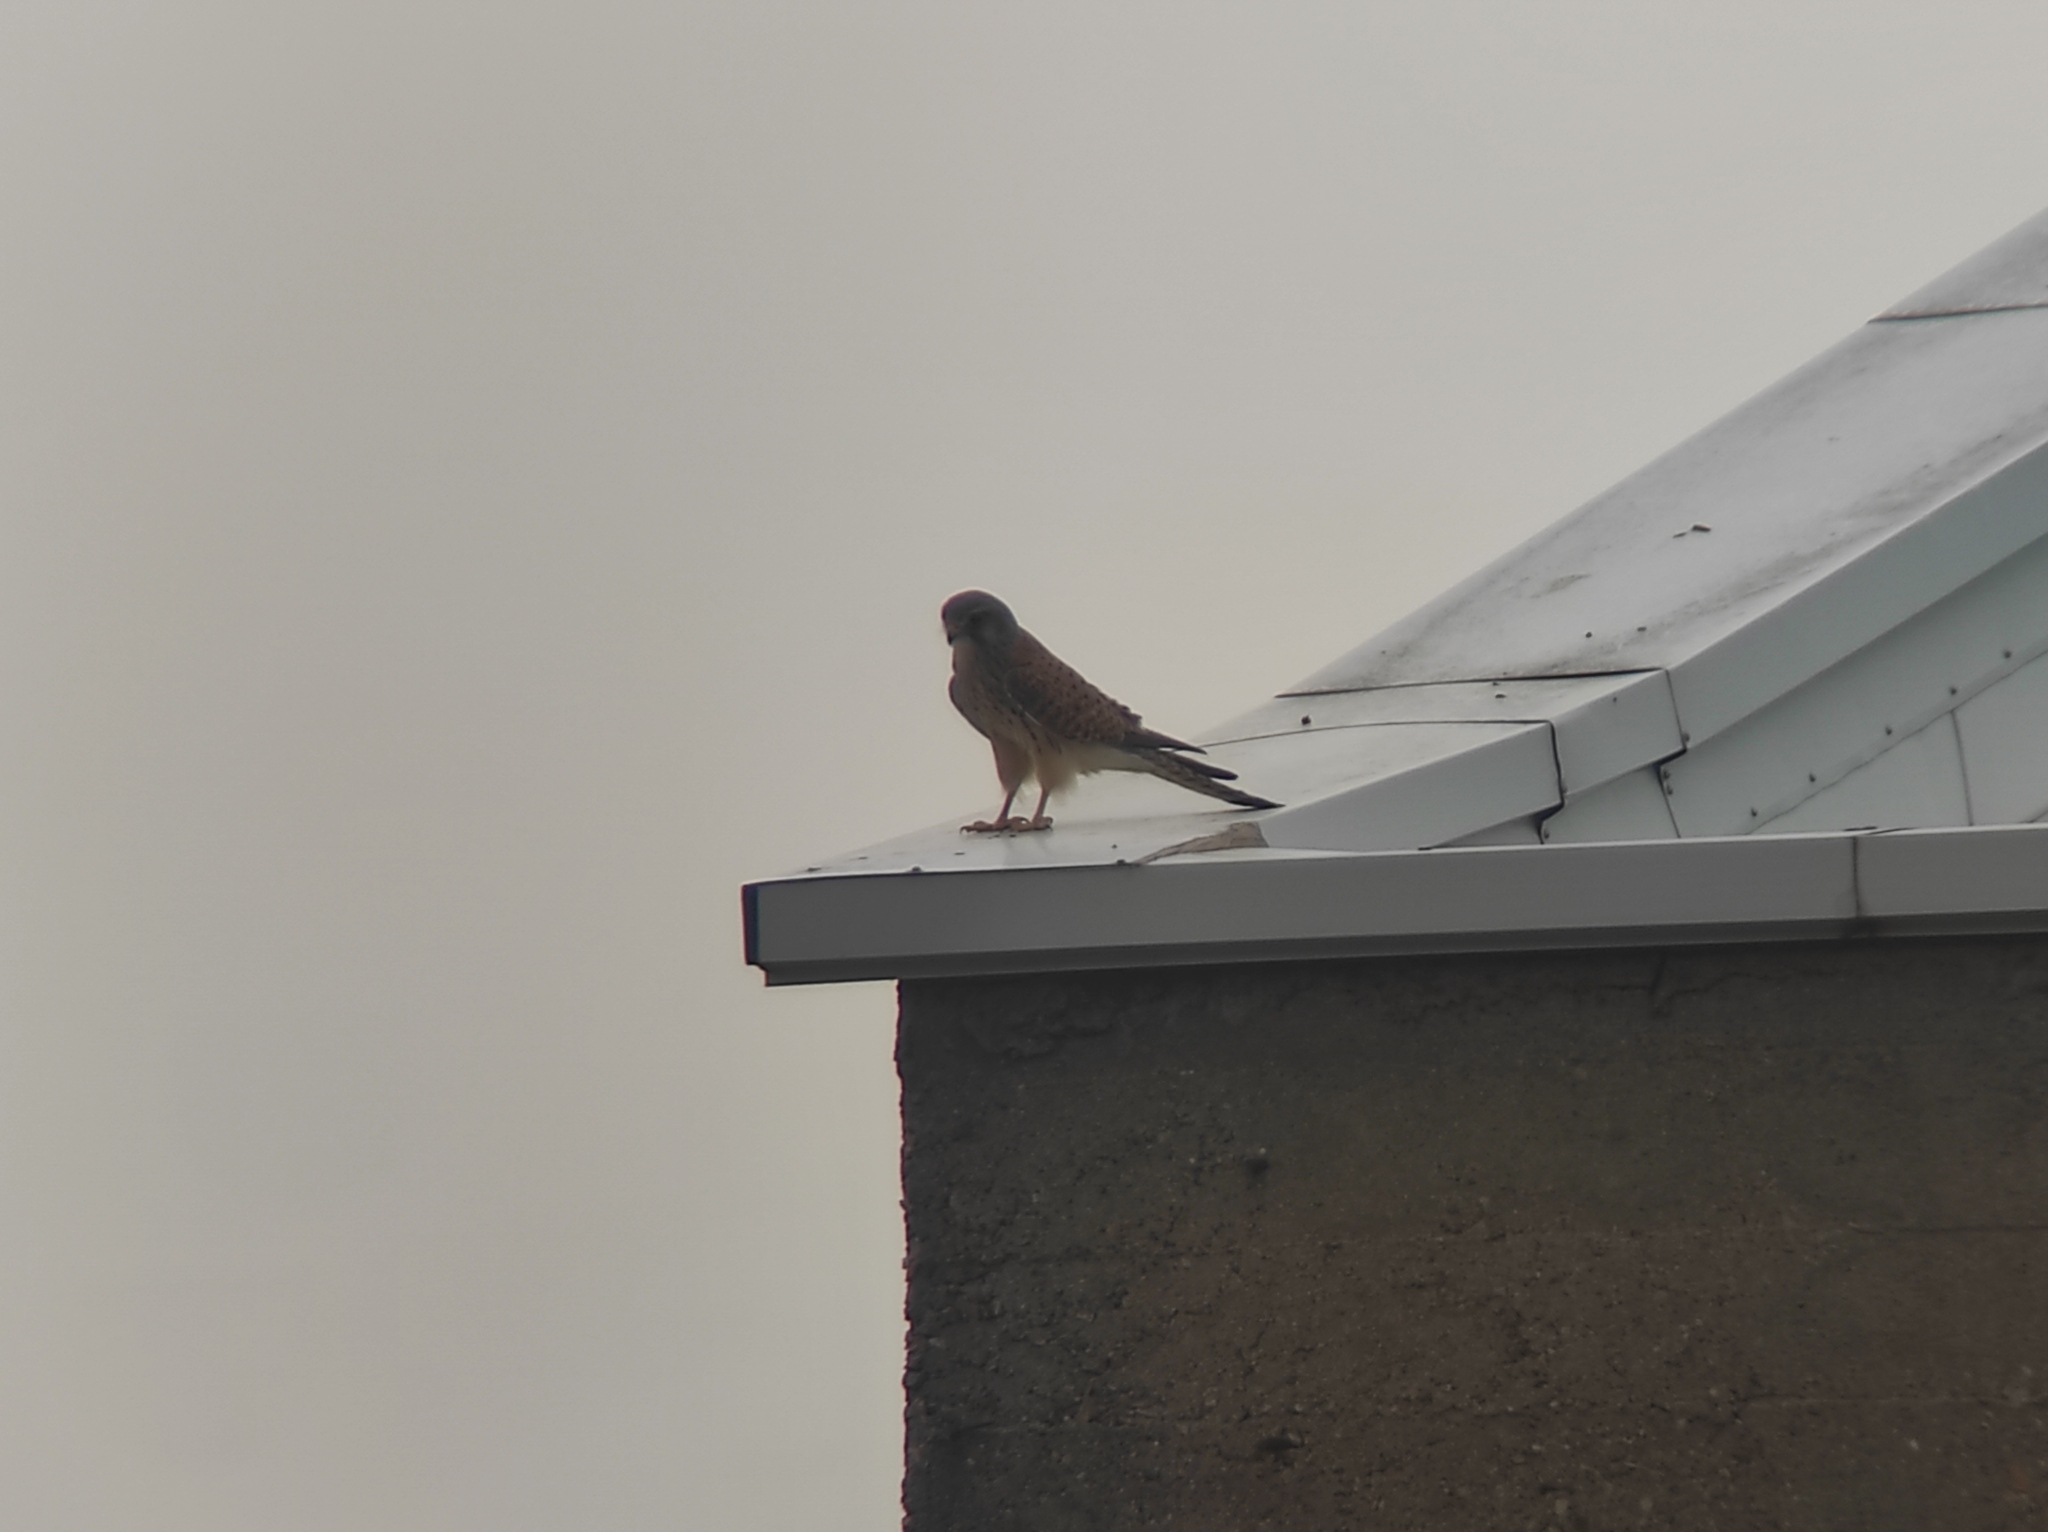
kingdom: Animalia
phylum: Chordata
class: Aves
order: Falconiformes
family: Falconidae
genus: Falco
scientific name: Falco tinnunculus
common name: Common kestrel
